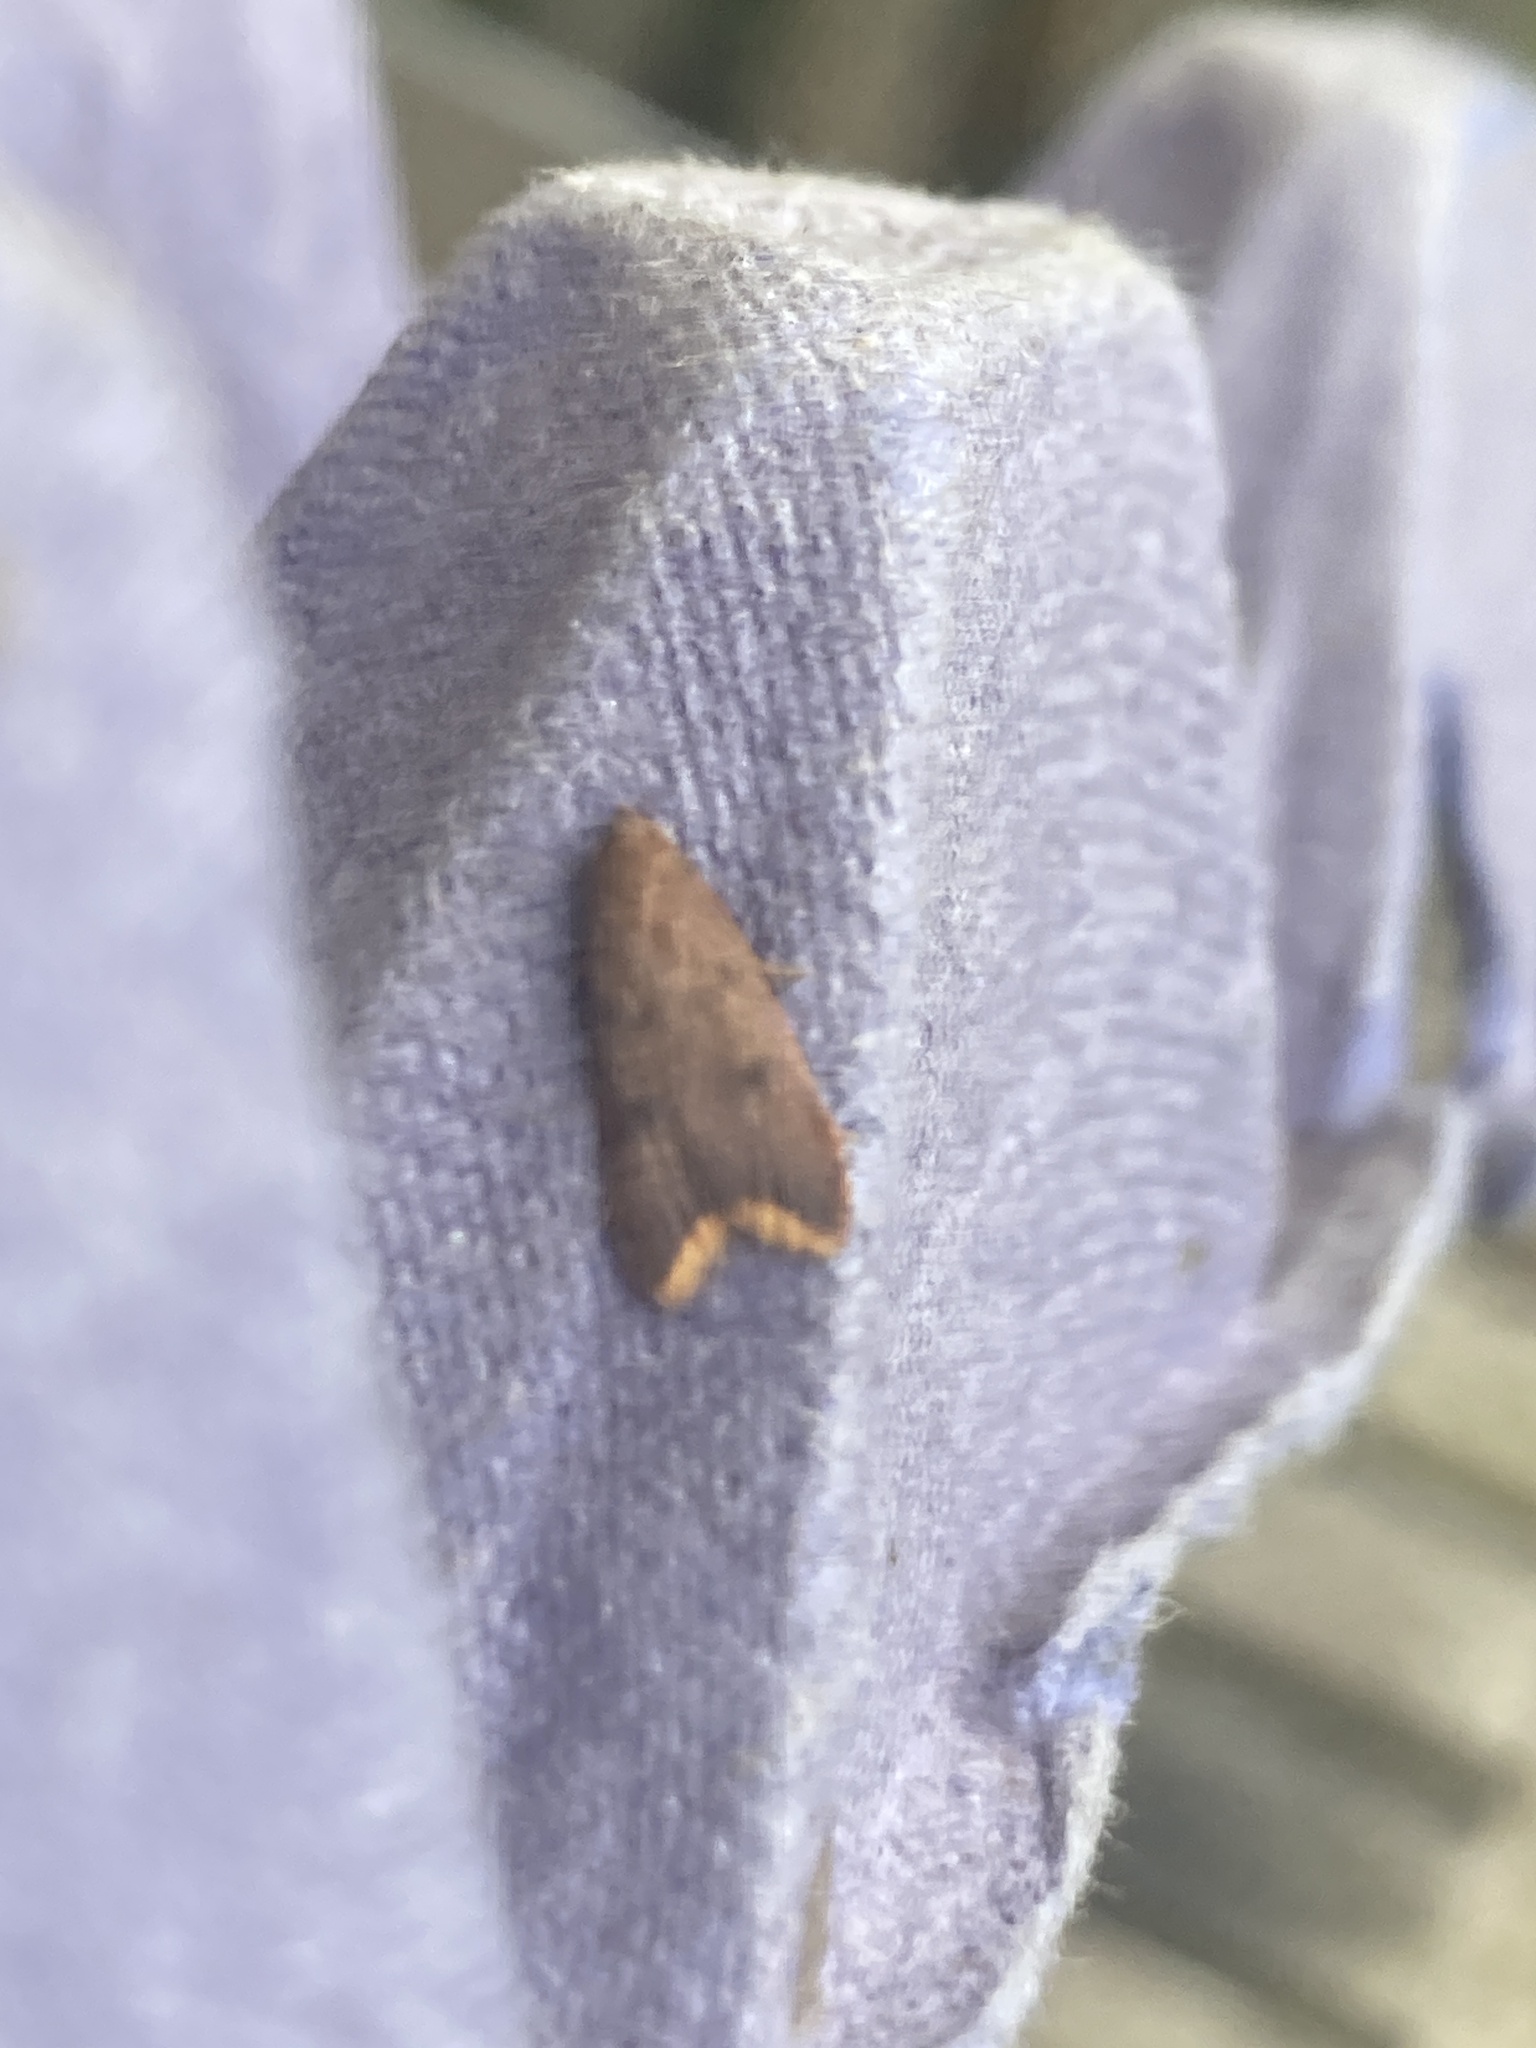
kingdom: Animalia
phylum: Arthropoda
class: Insecta
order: Lepidoptera
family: Oecophoridae
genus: Tachystola
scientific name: Tachystola acroxantha
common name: Ruddy streak
